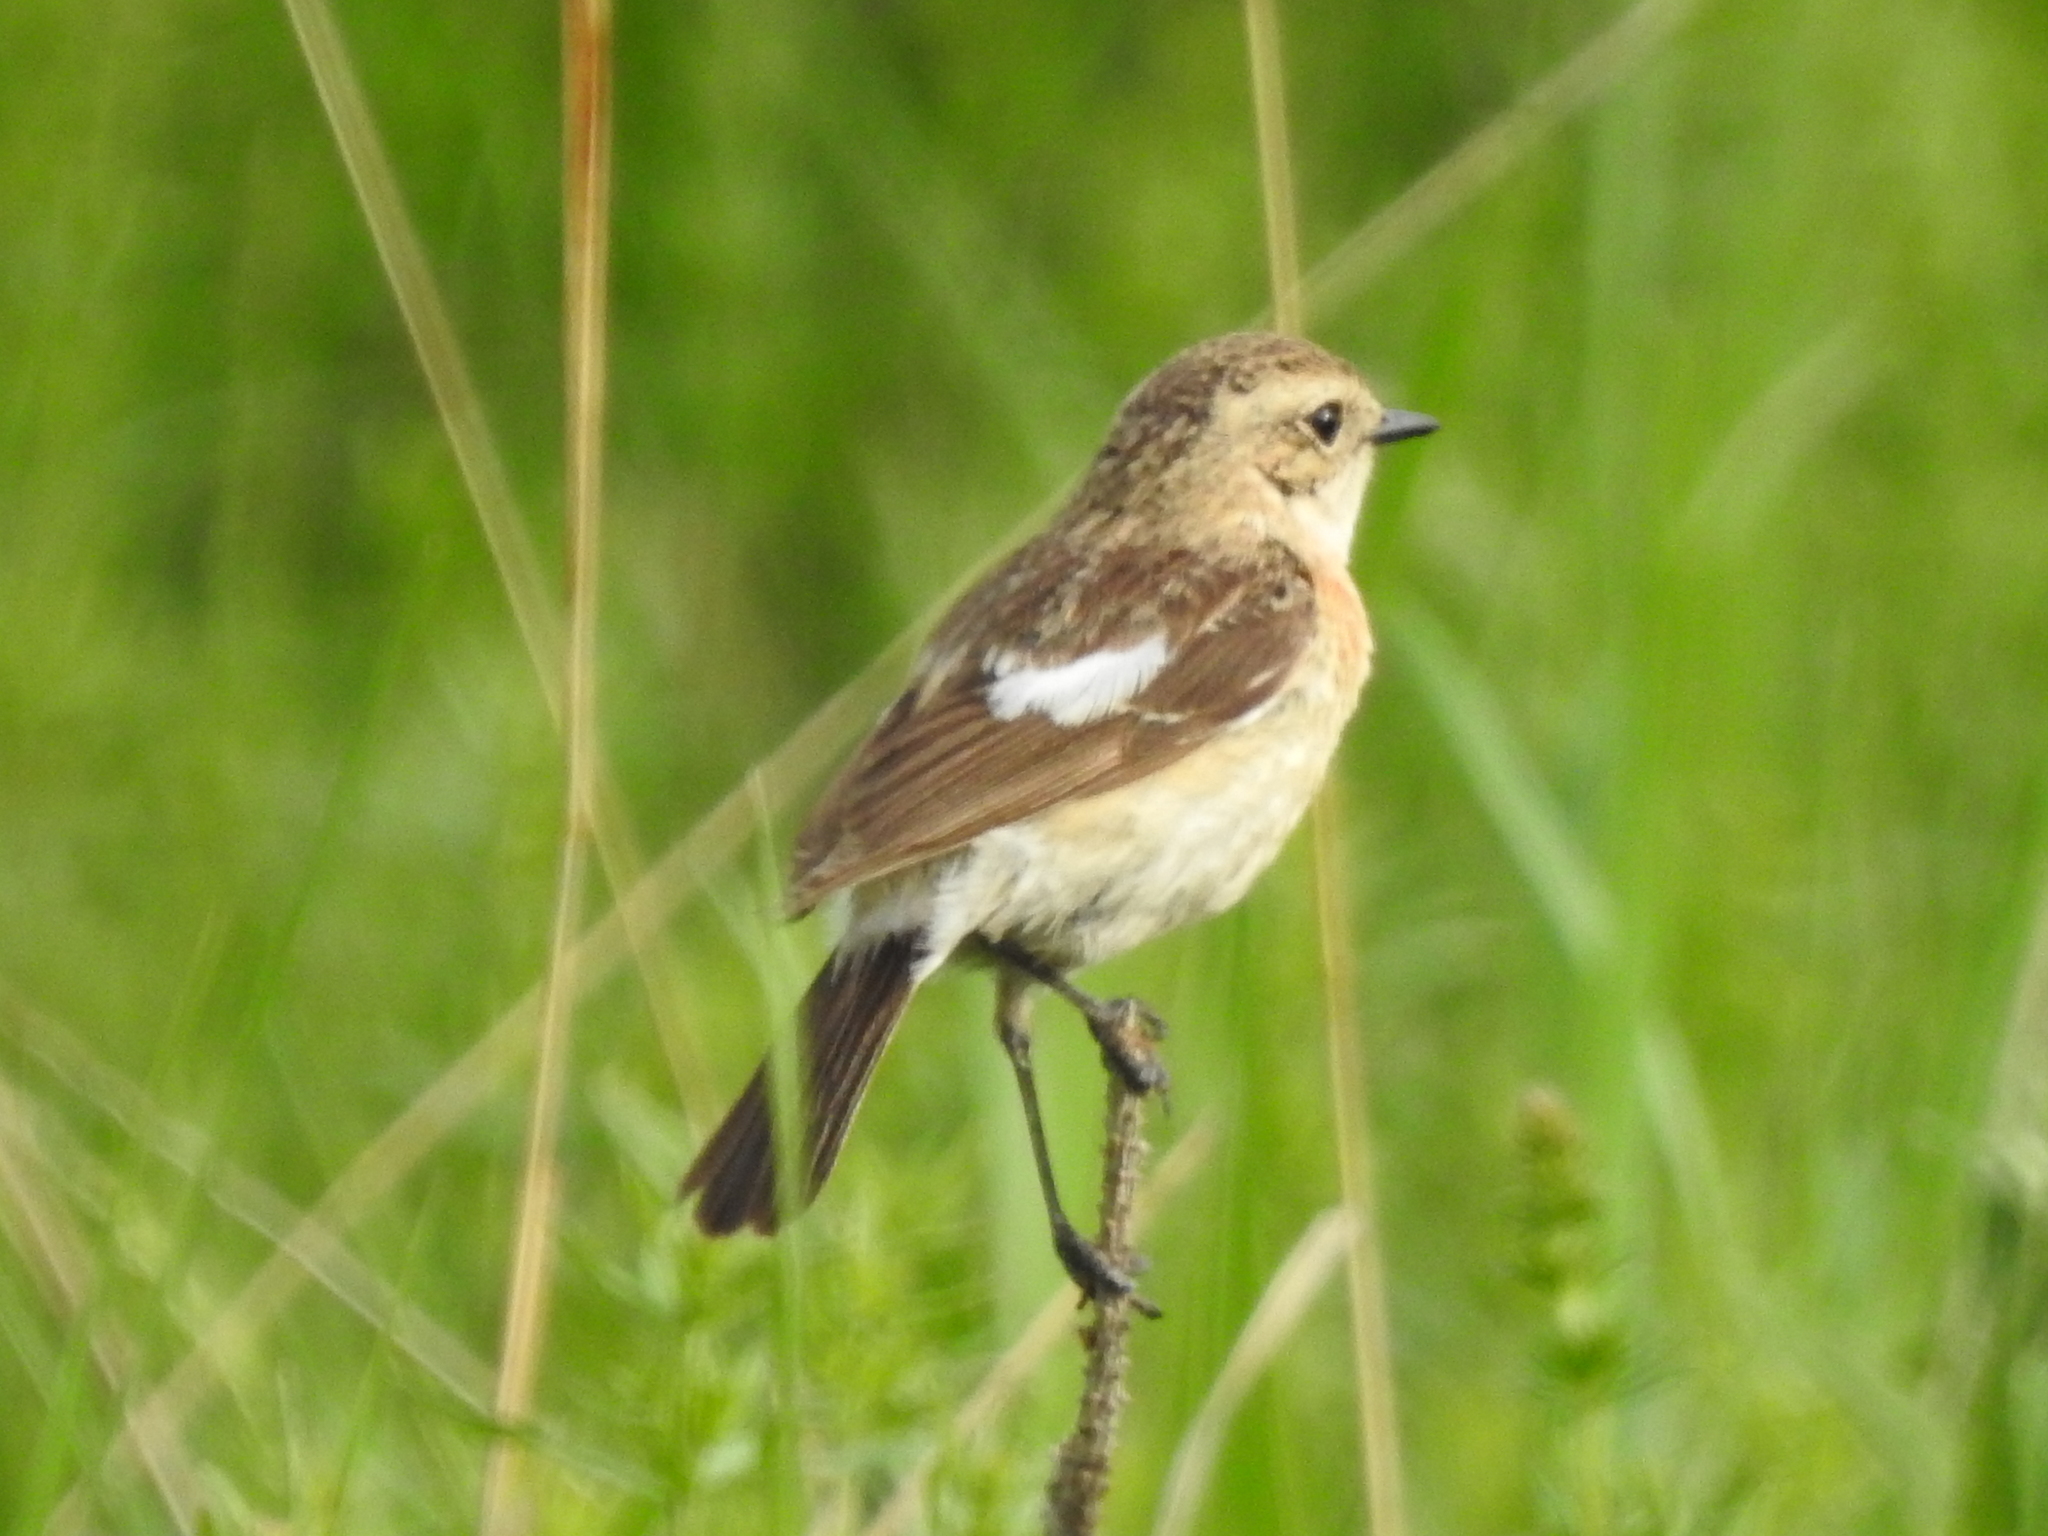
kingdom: Animalia
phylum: Chordata
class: Aves
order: Passeriformes
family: Muscicapidae
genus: Saxicola
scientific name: Saxicola maurus
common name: Siberian stonechat
